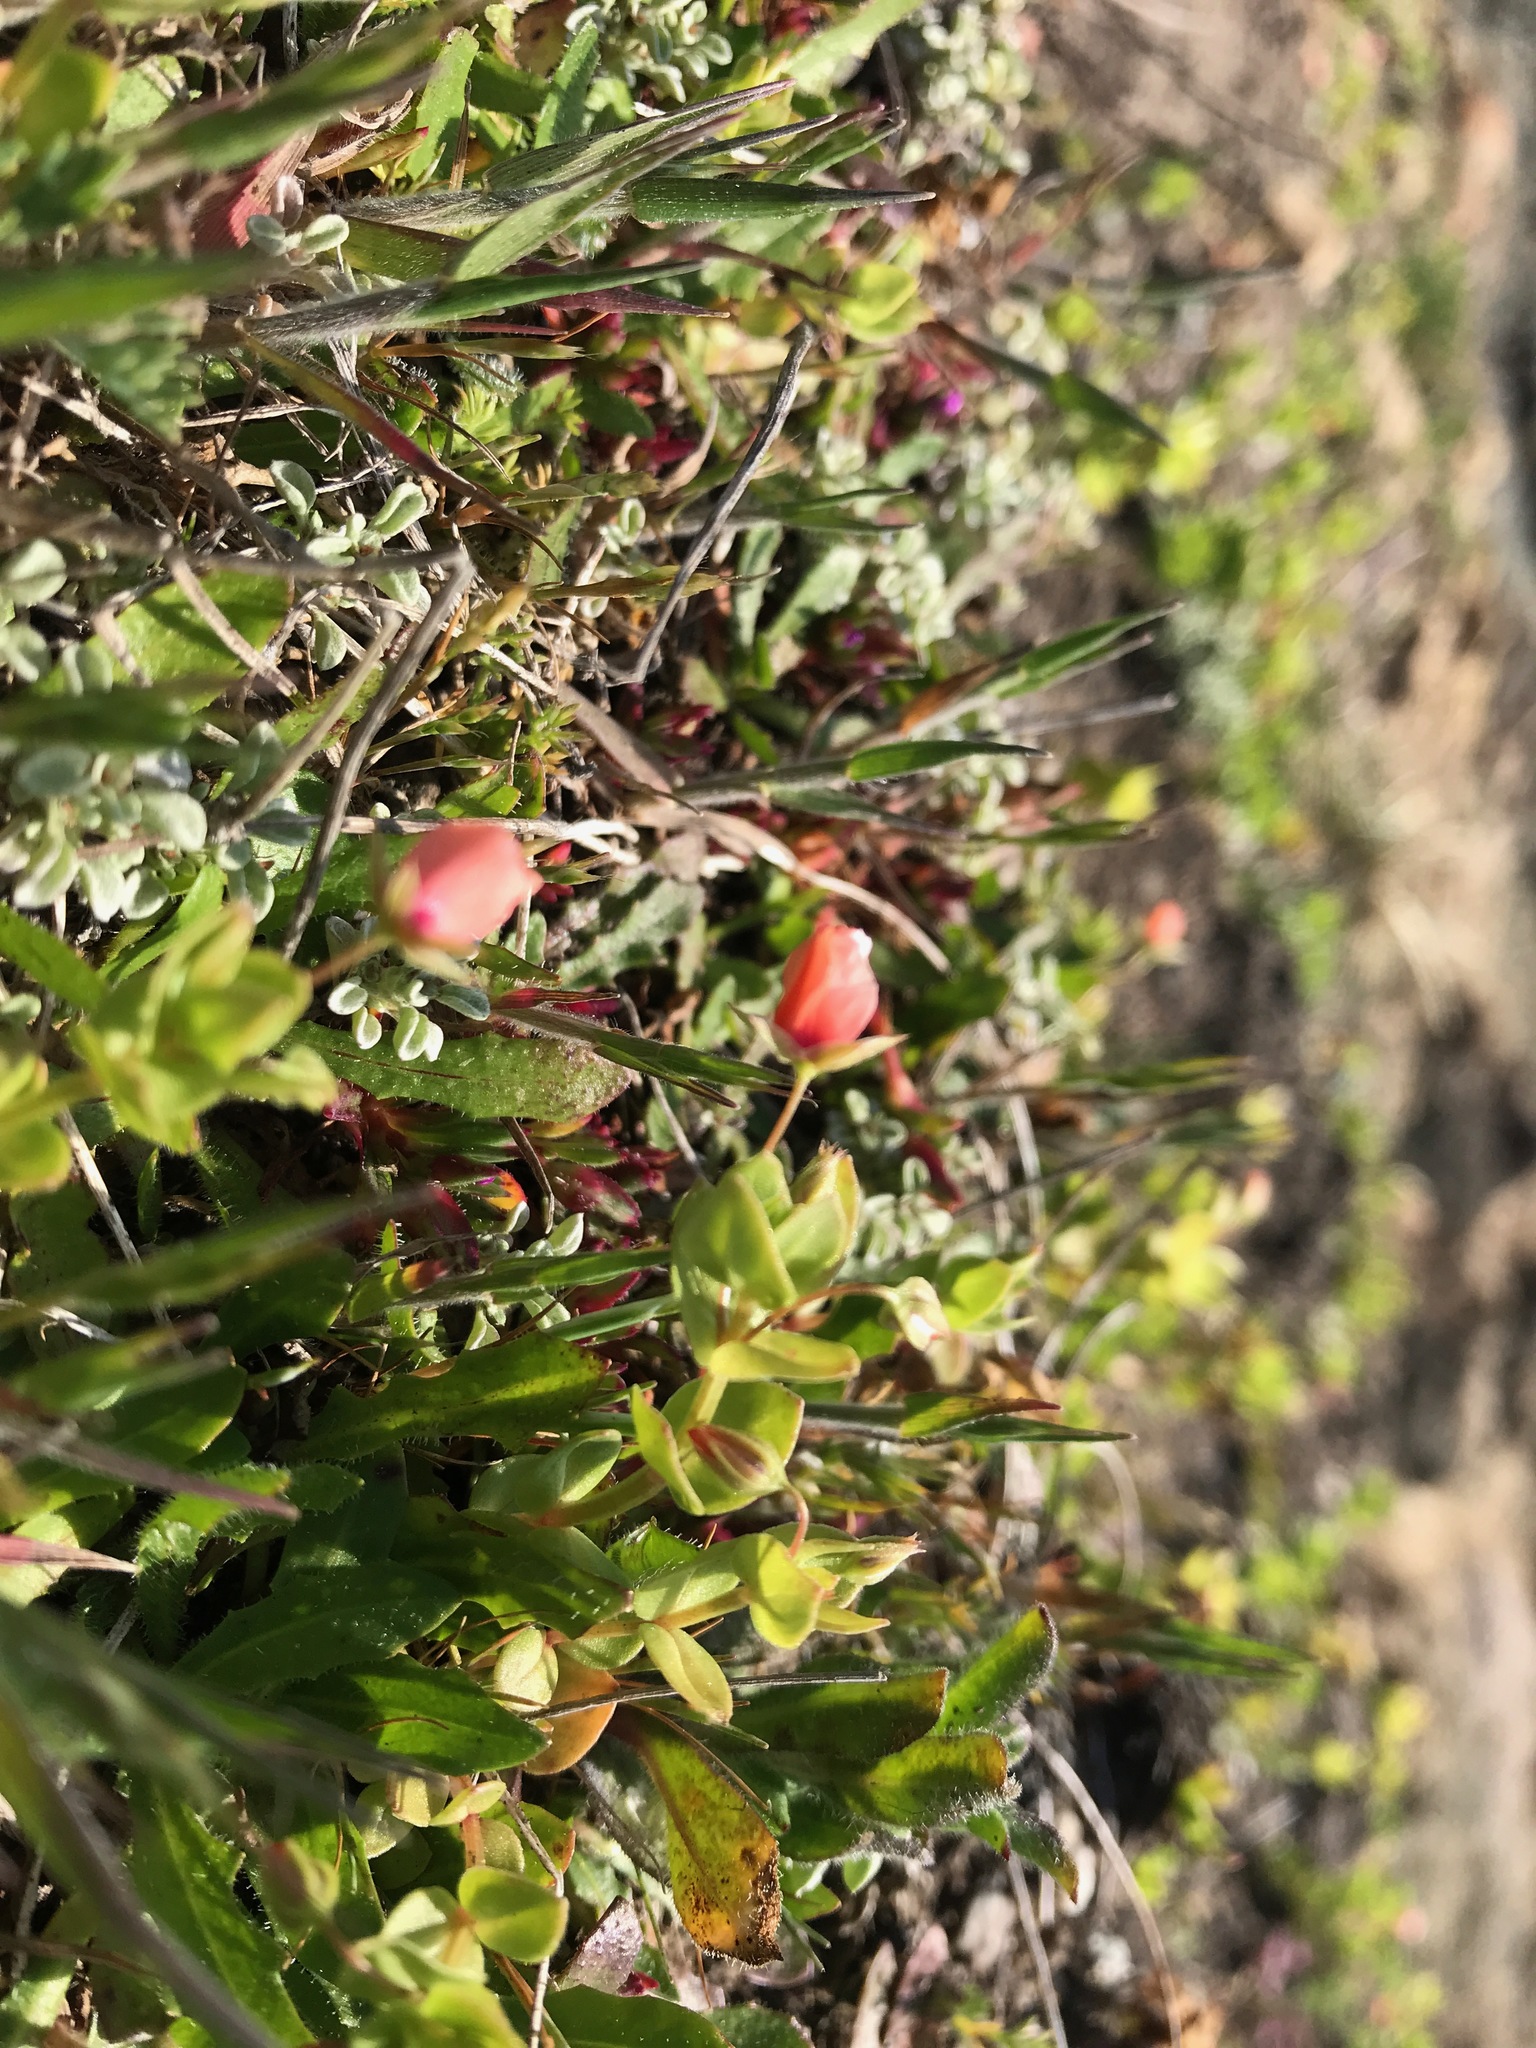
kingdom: Plantae
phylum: Tracheophyta
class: Magnoliopsida
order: Ericales
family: Primulaceae
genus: Lysimachia
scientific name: Lysimachia arvensis
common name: Scarlet pimpernel
